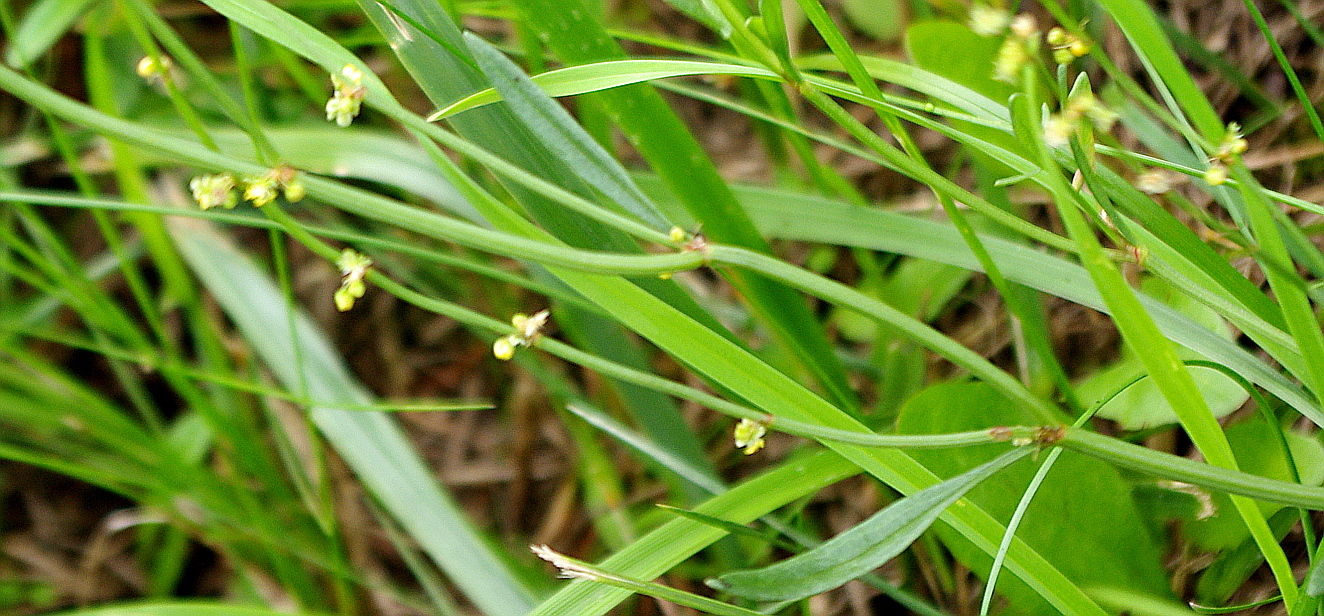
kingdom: Plantae
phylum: Tracheophyta
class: Magnoliopsida
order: Caryophyllales
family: Polygonaceae
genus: Rumex
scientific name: Rumex acetosella
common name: Common sheep sorrel
